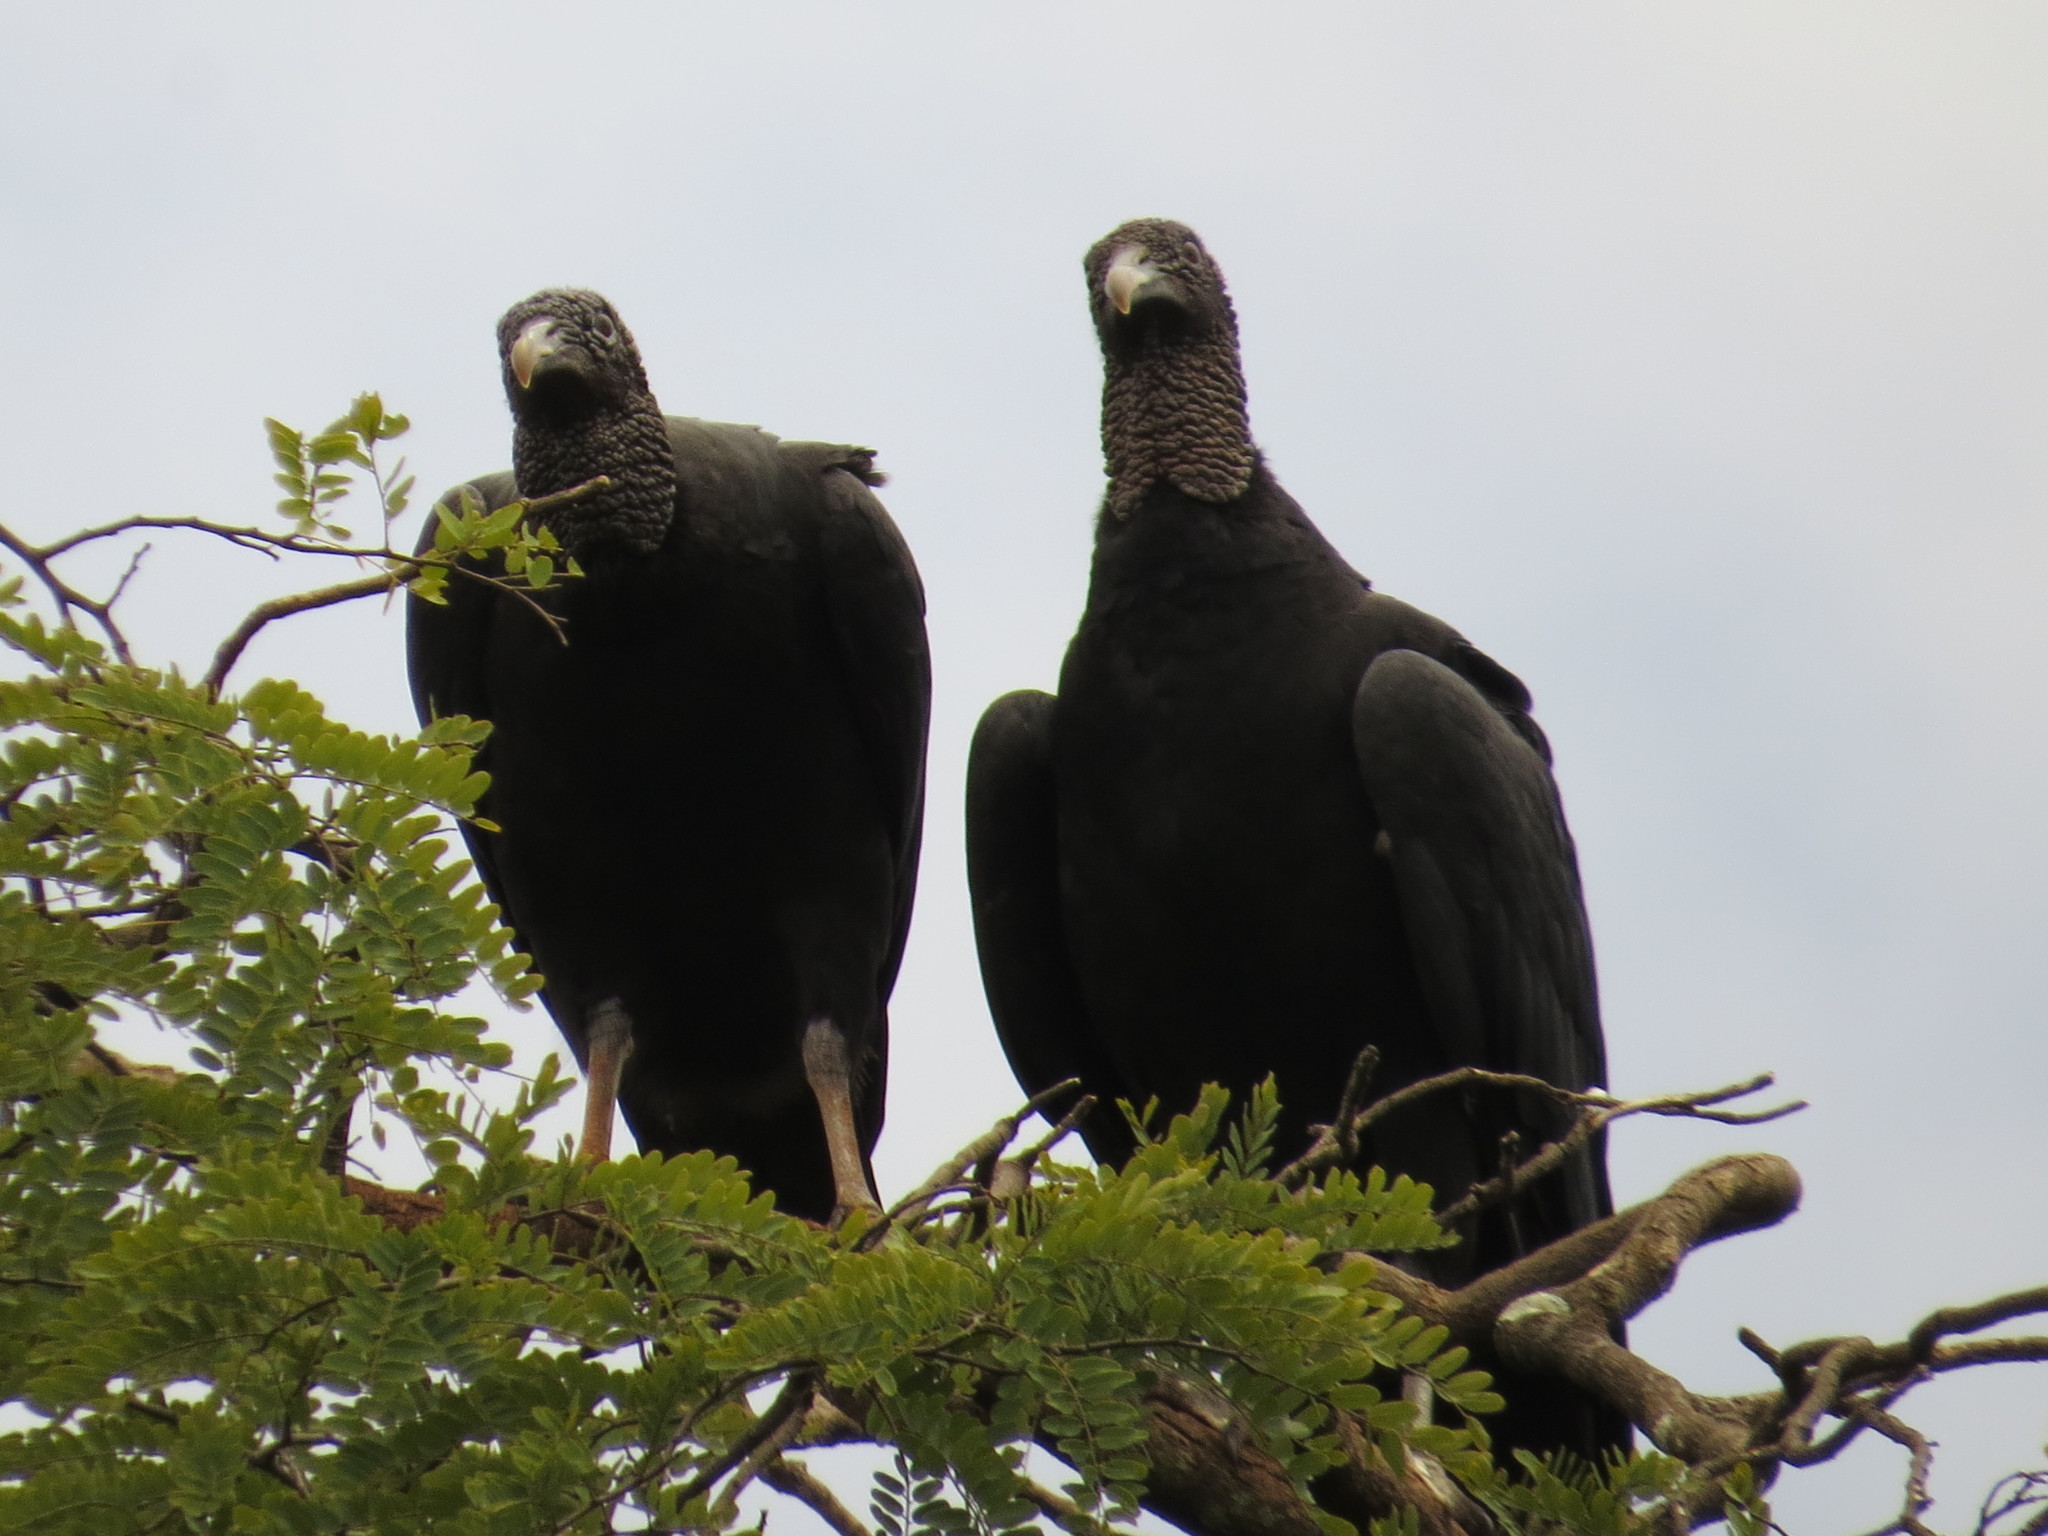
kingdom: Animalia
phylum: Chordata
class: Aves
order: Accipitriformes
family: Cathartidae
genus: Coragyps
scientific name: Coragyps atratus
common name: Black vulture
